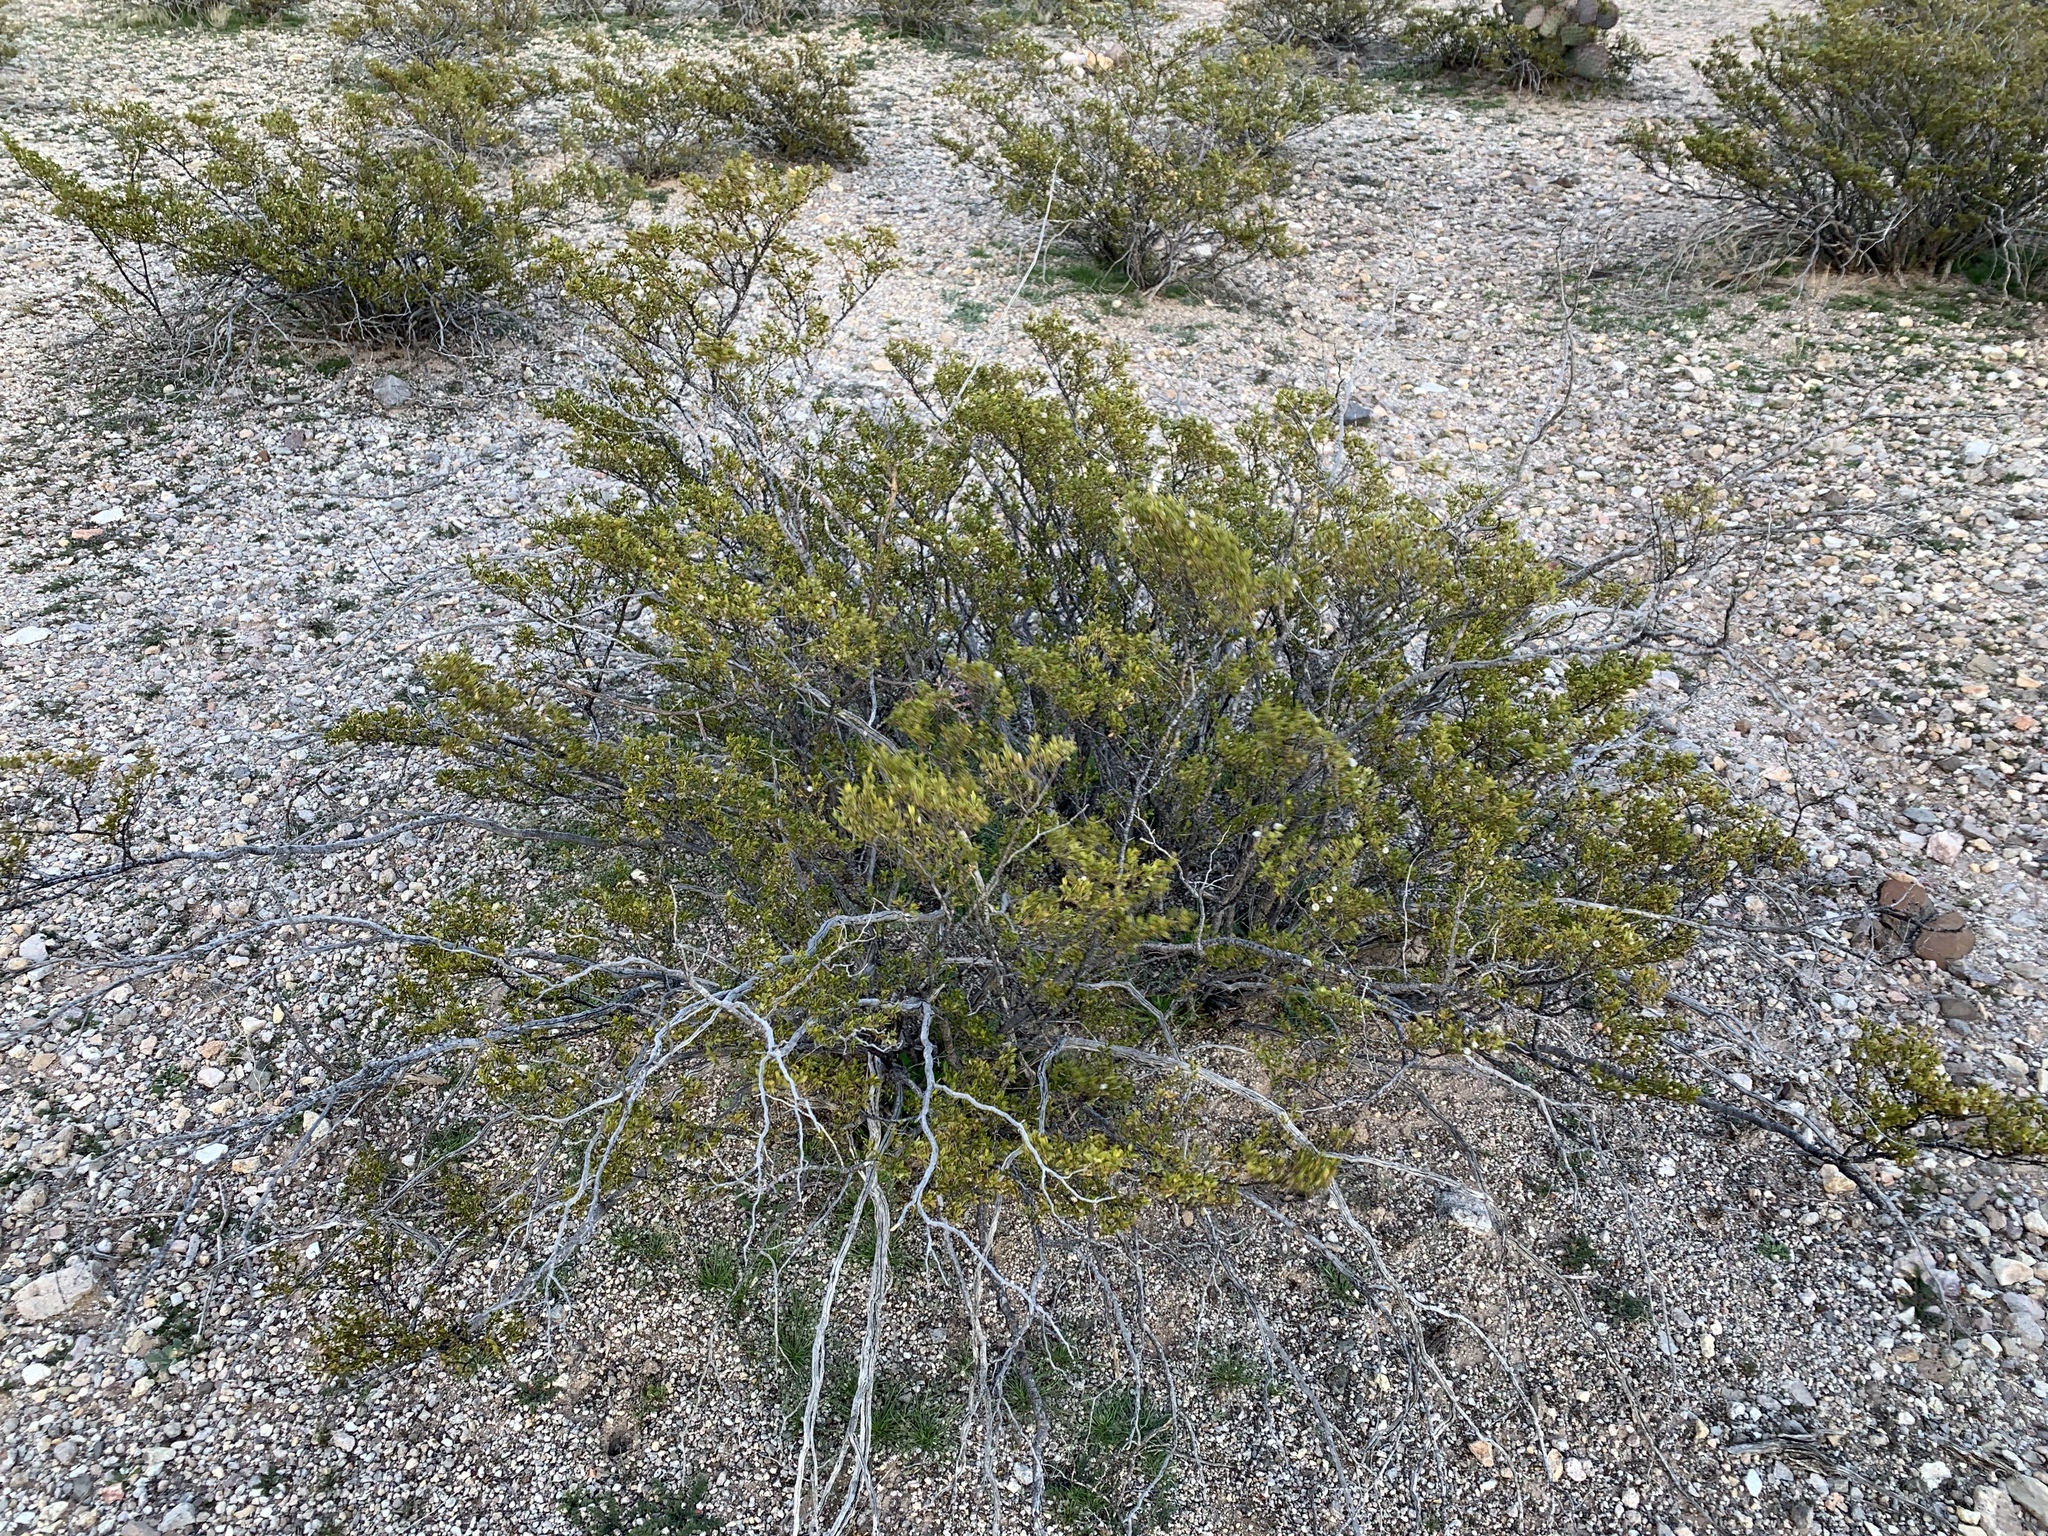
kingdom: Plantae
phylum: Tracheophyta
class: Magnoliopsida
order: Zygophyllales
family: Zygophyllaceae
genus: Larrea
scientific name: Larrea tridentata
